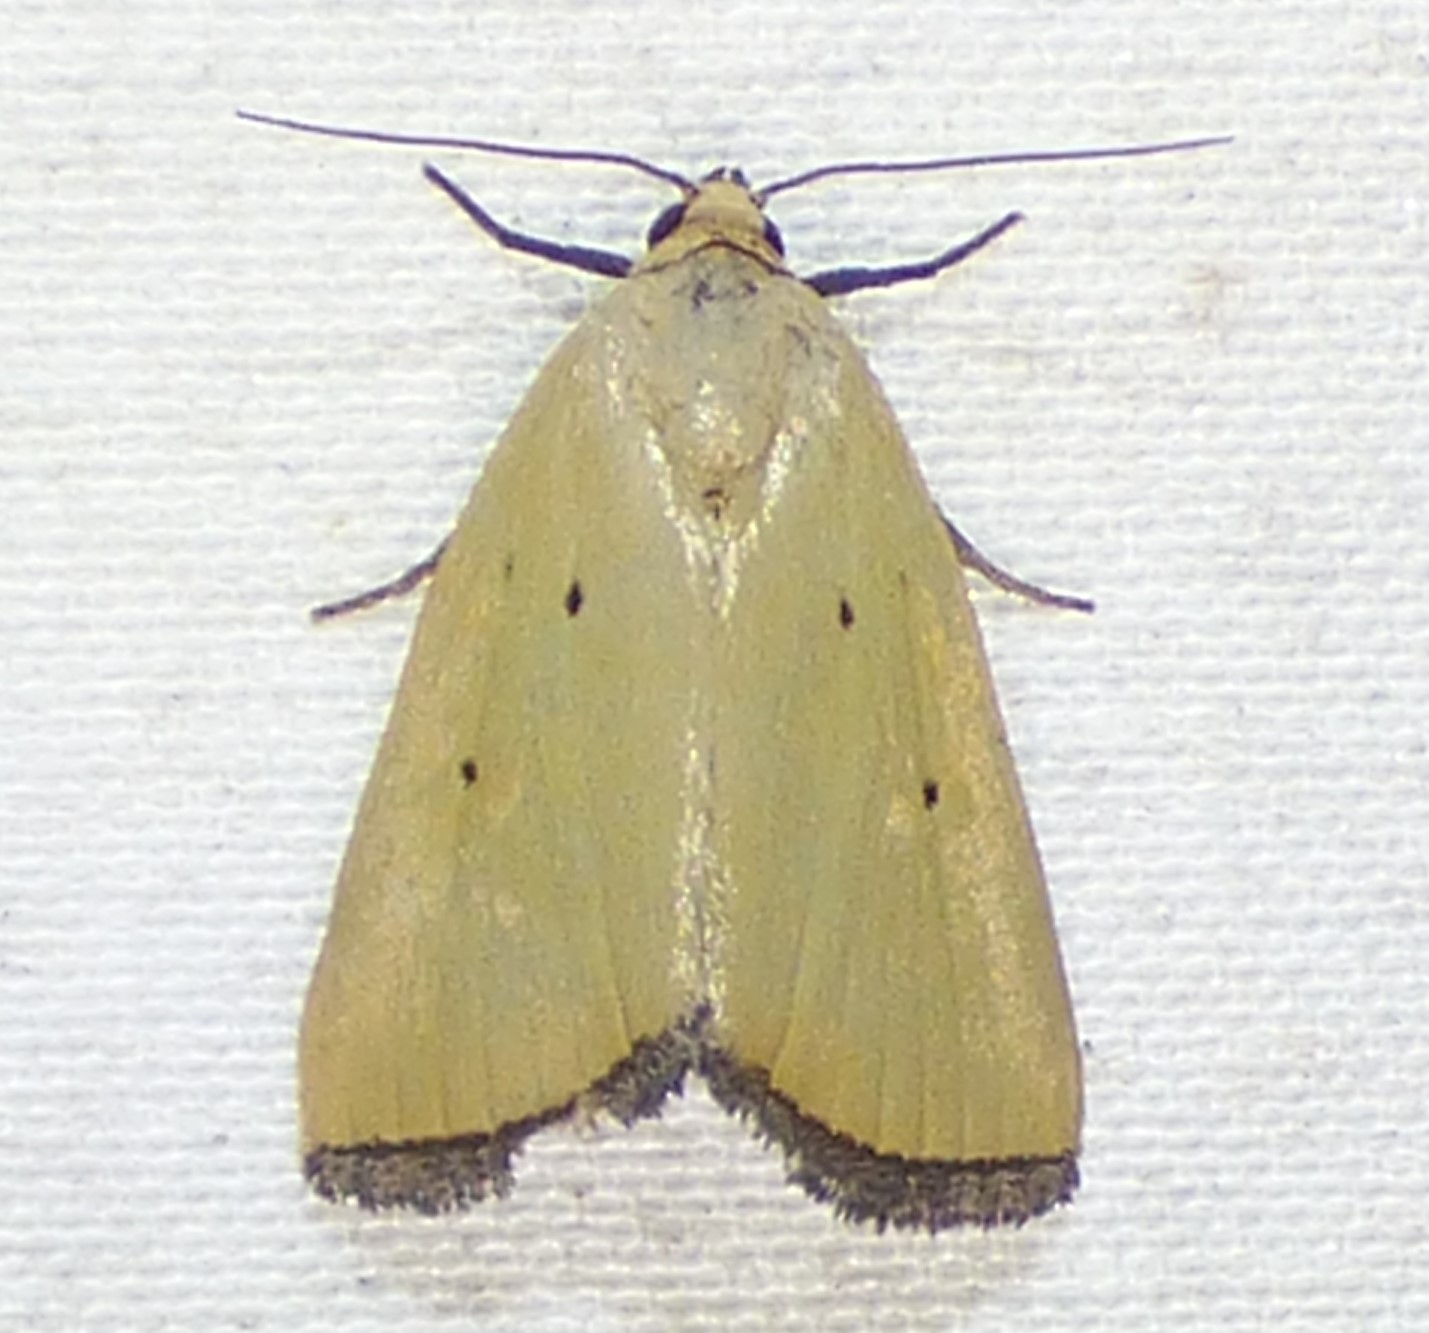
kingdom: Animalia
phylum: Arthropoda
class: Insecta
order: Lepidoptera
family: Noctuidae
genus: Marimatha
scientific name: Marimatha nigrofimbria
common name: Black-bordered lemon moth
